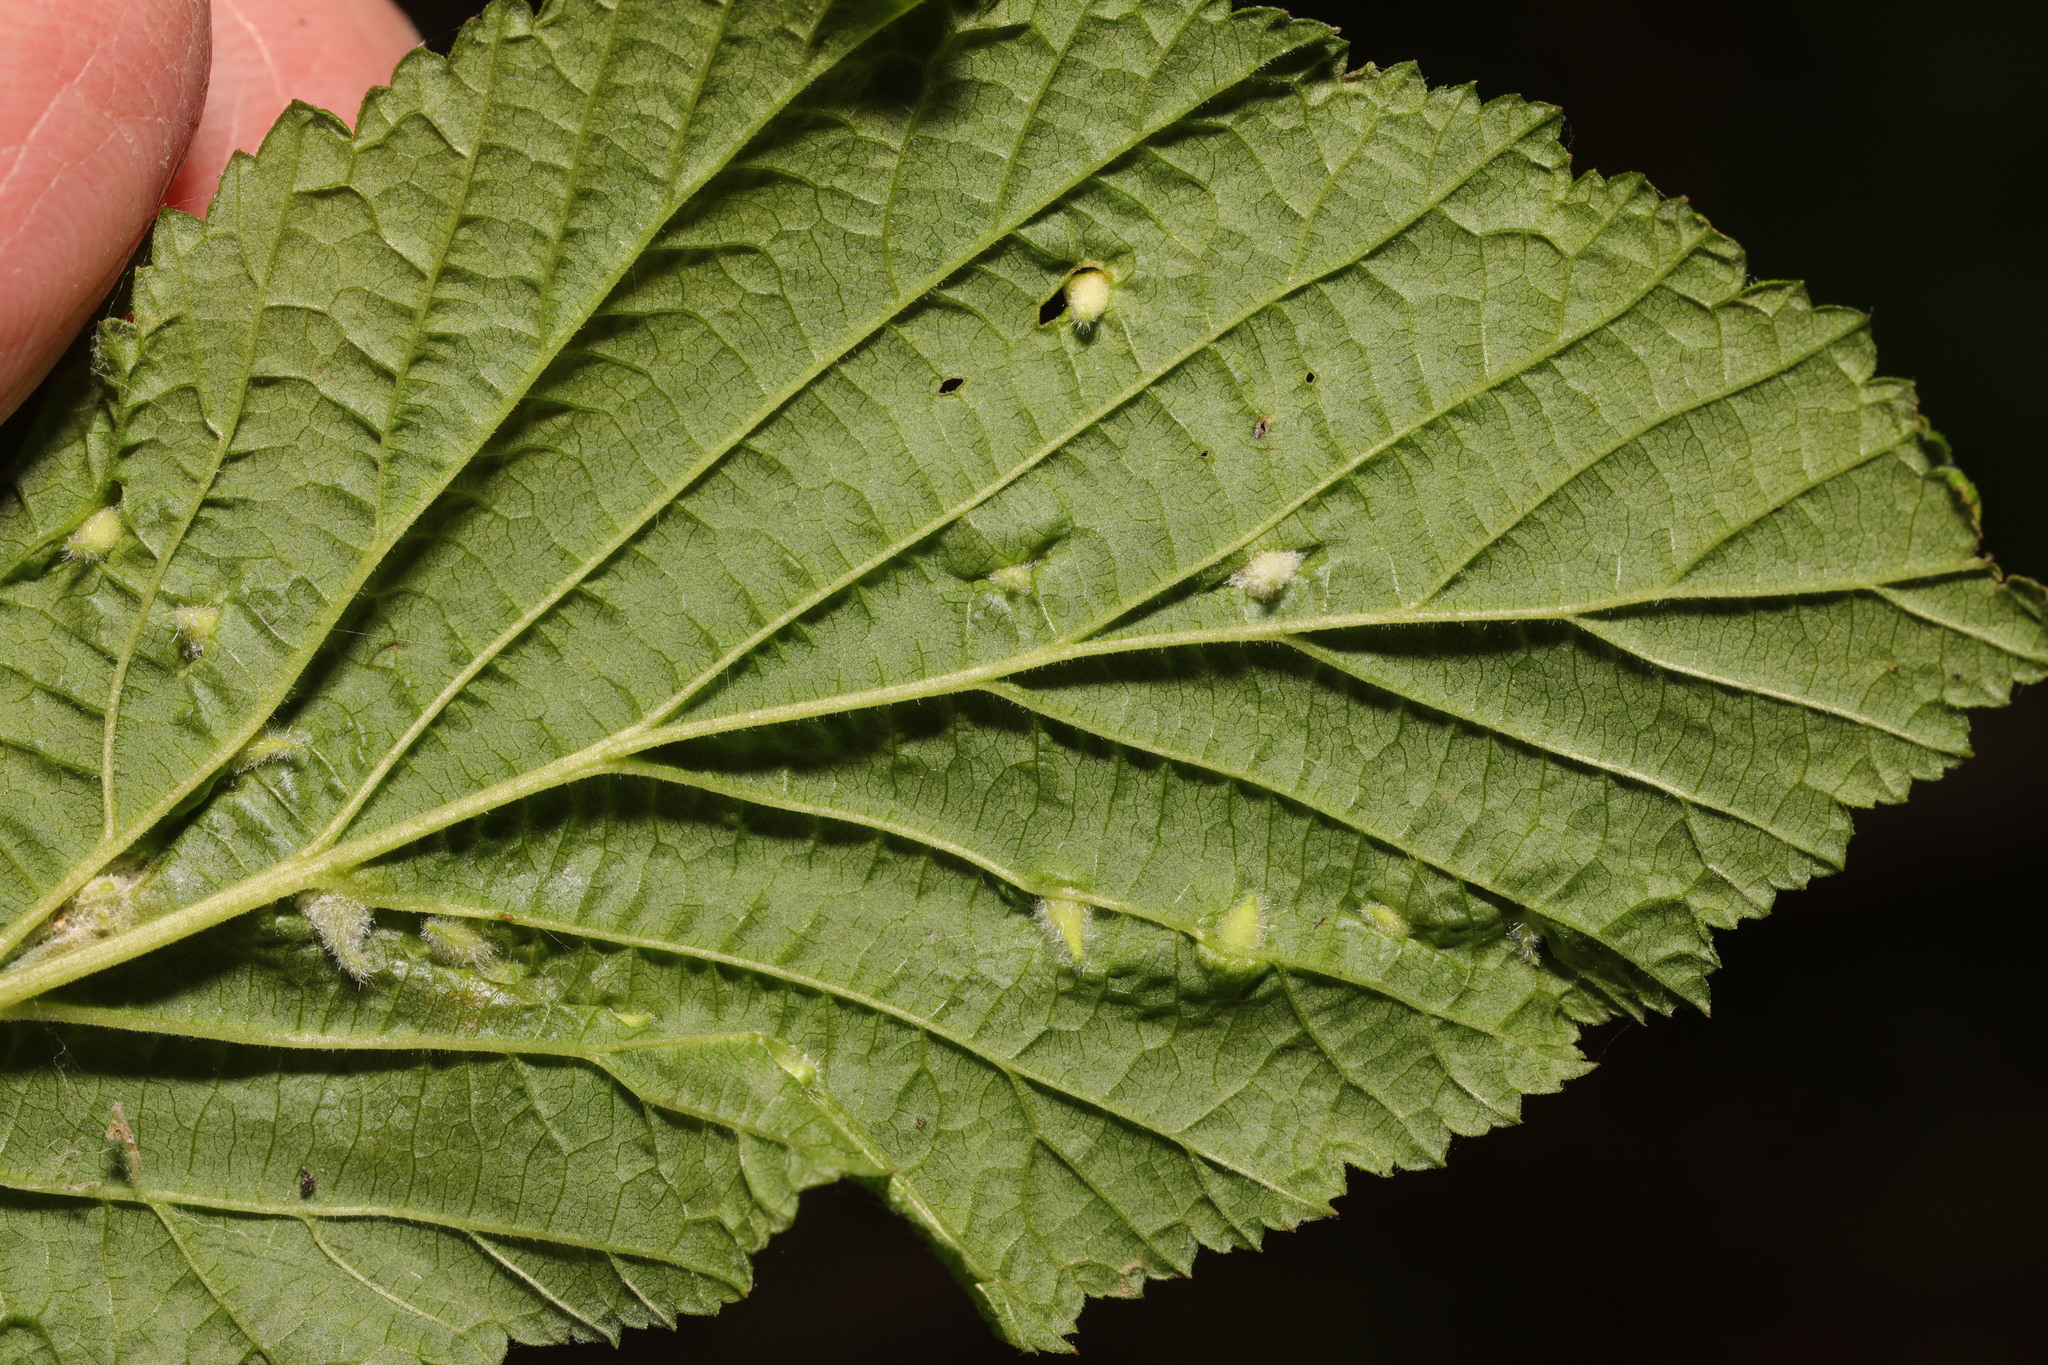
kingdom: Animalia
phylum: Arthropoda
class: Insecta
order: Diptera
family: Cecidomyiidae
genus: Dasineura
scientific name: Dasineura ulmaria
